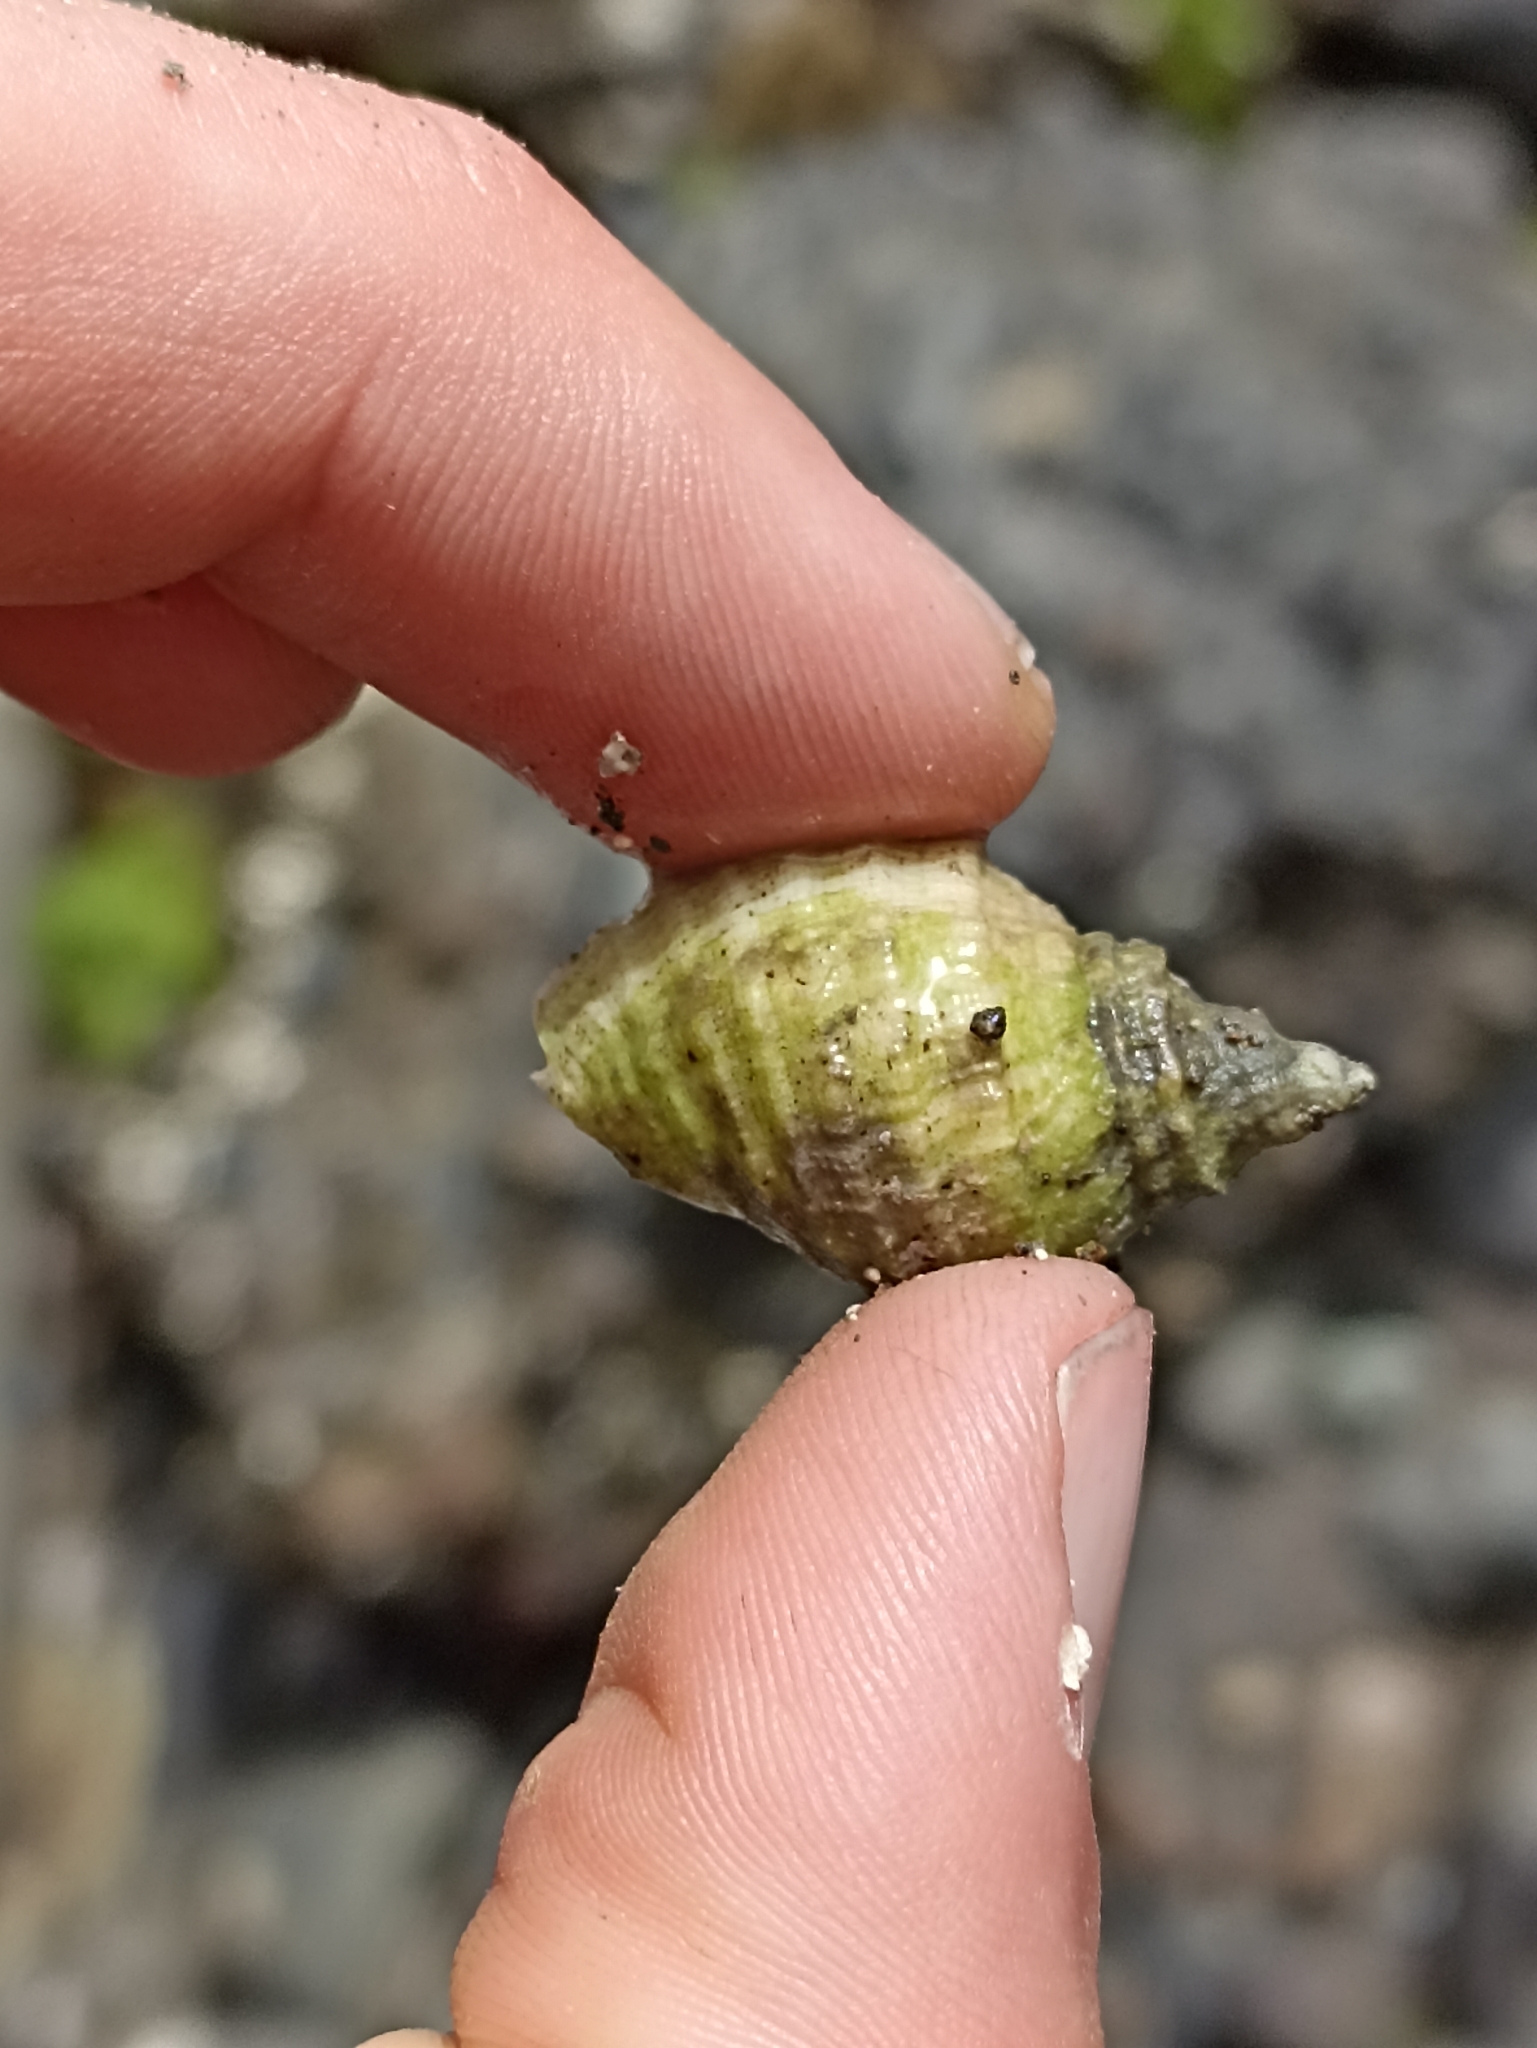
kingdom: Animalia
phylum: Mollusca
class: Gastropoda
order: Neogastropoda
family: Muricidae
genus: Dicathais
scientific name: Dicathais orbita
